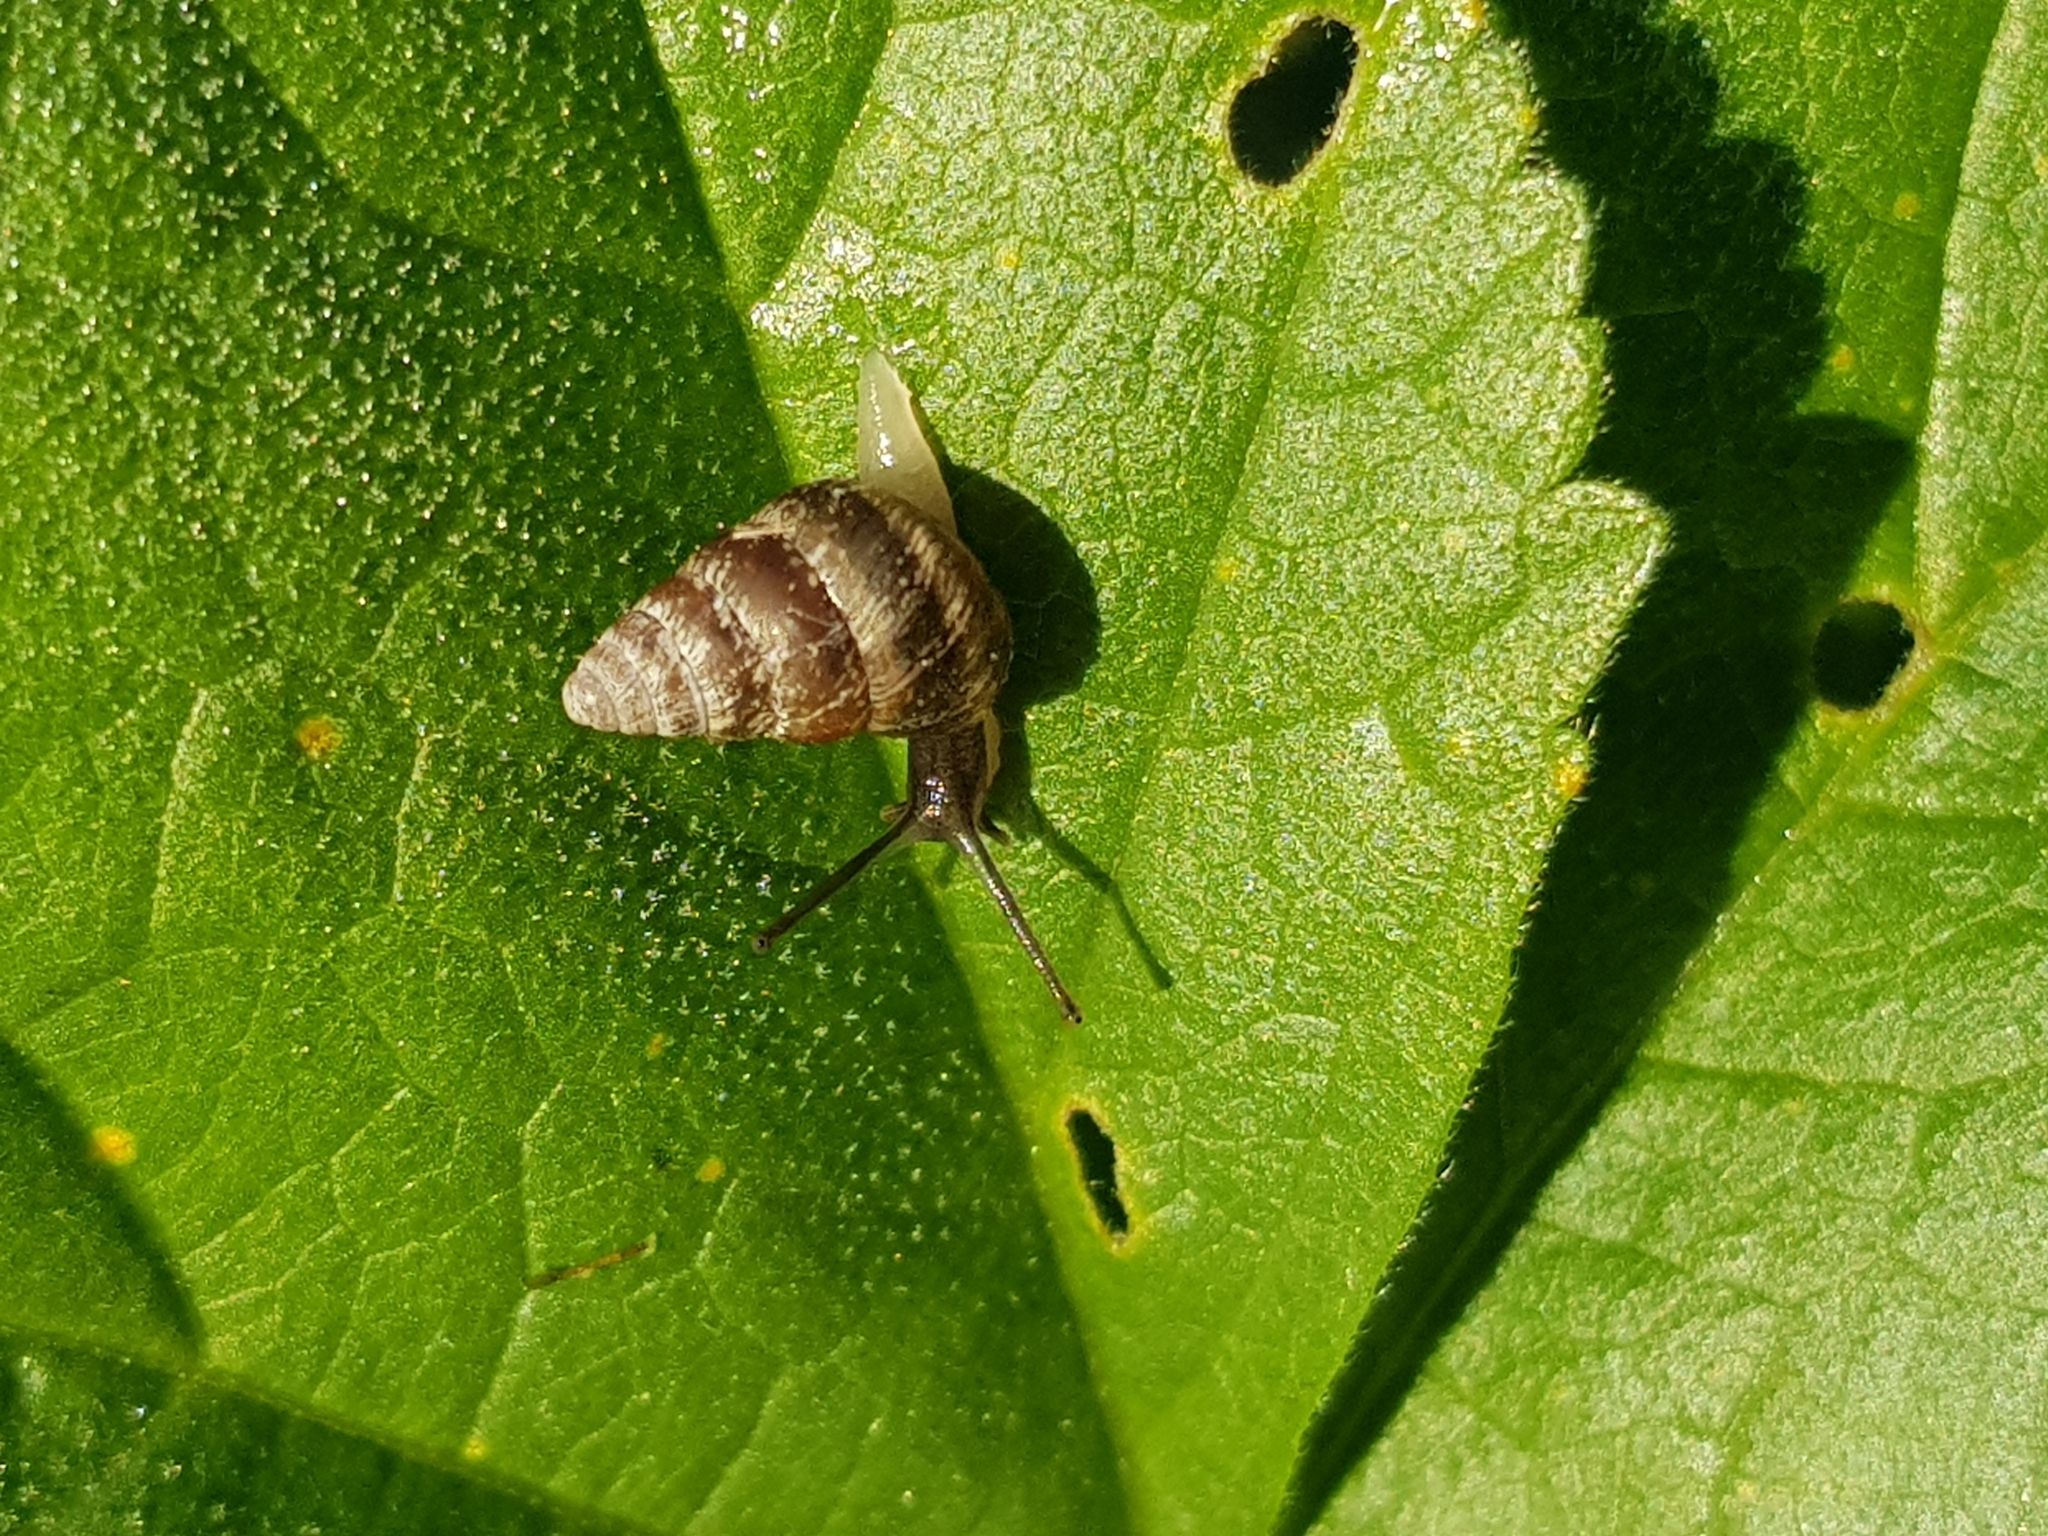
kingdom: Animalia
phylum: Mollusca
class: Gastropoda
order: Stylommatophora
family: Geomitridae
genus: Cochlicella
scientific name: Cochlicella barbara
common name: Potbellied helicellid
